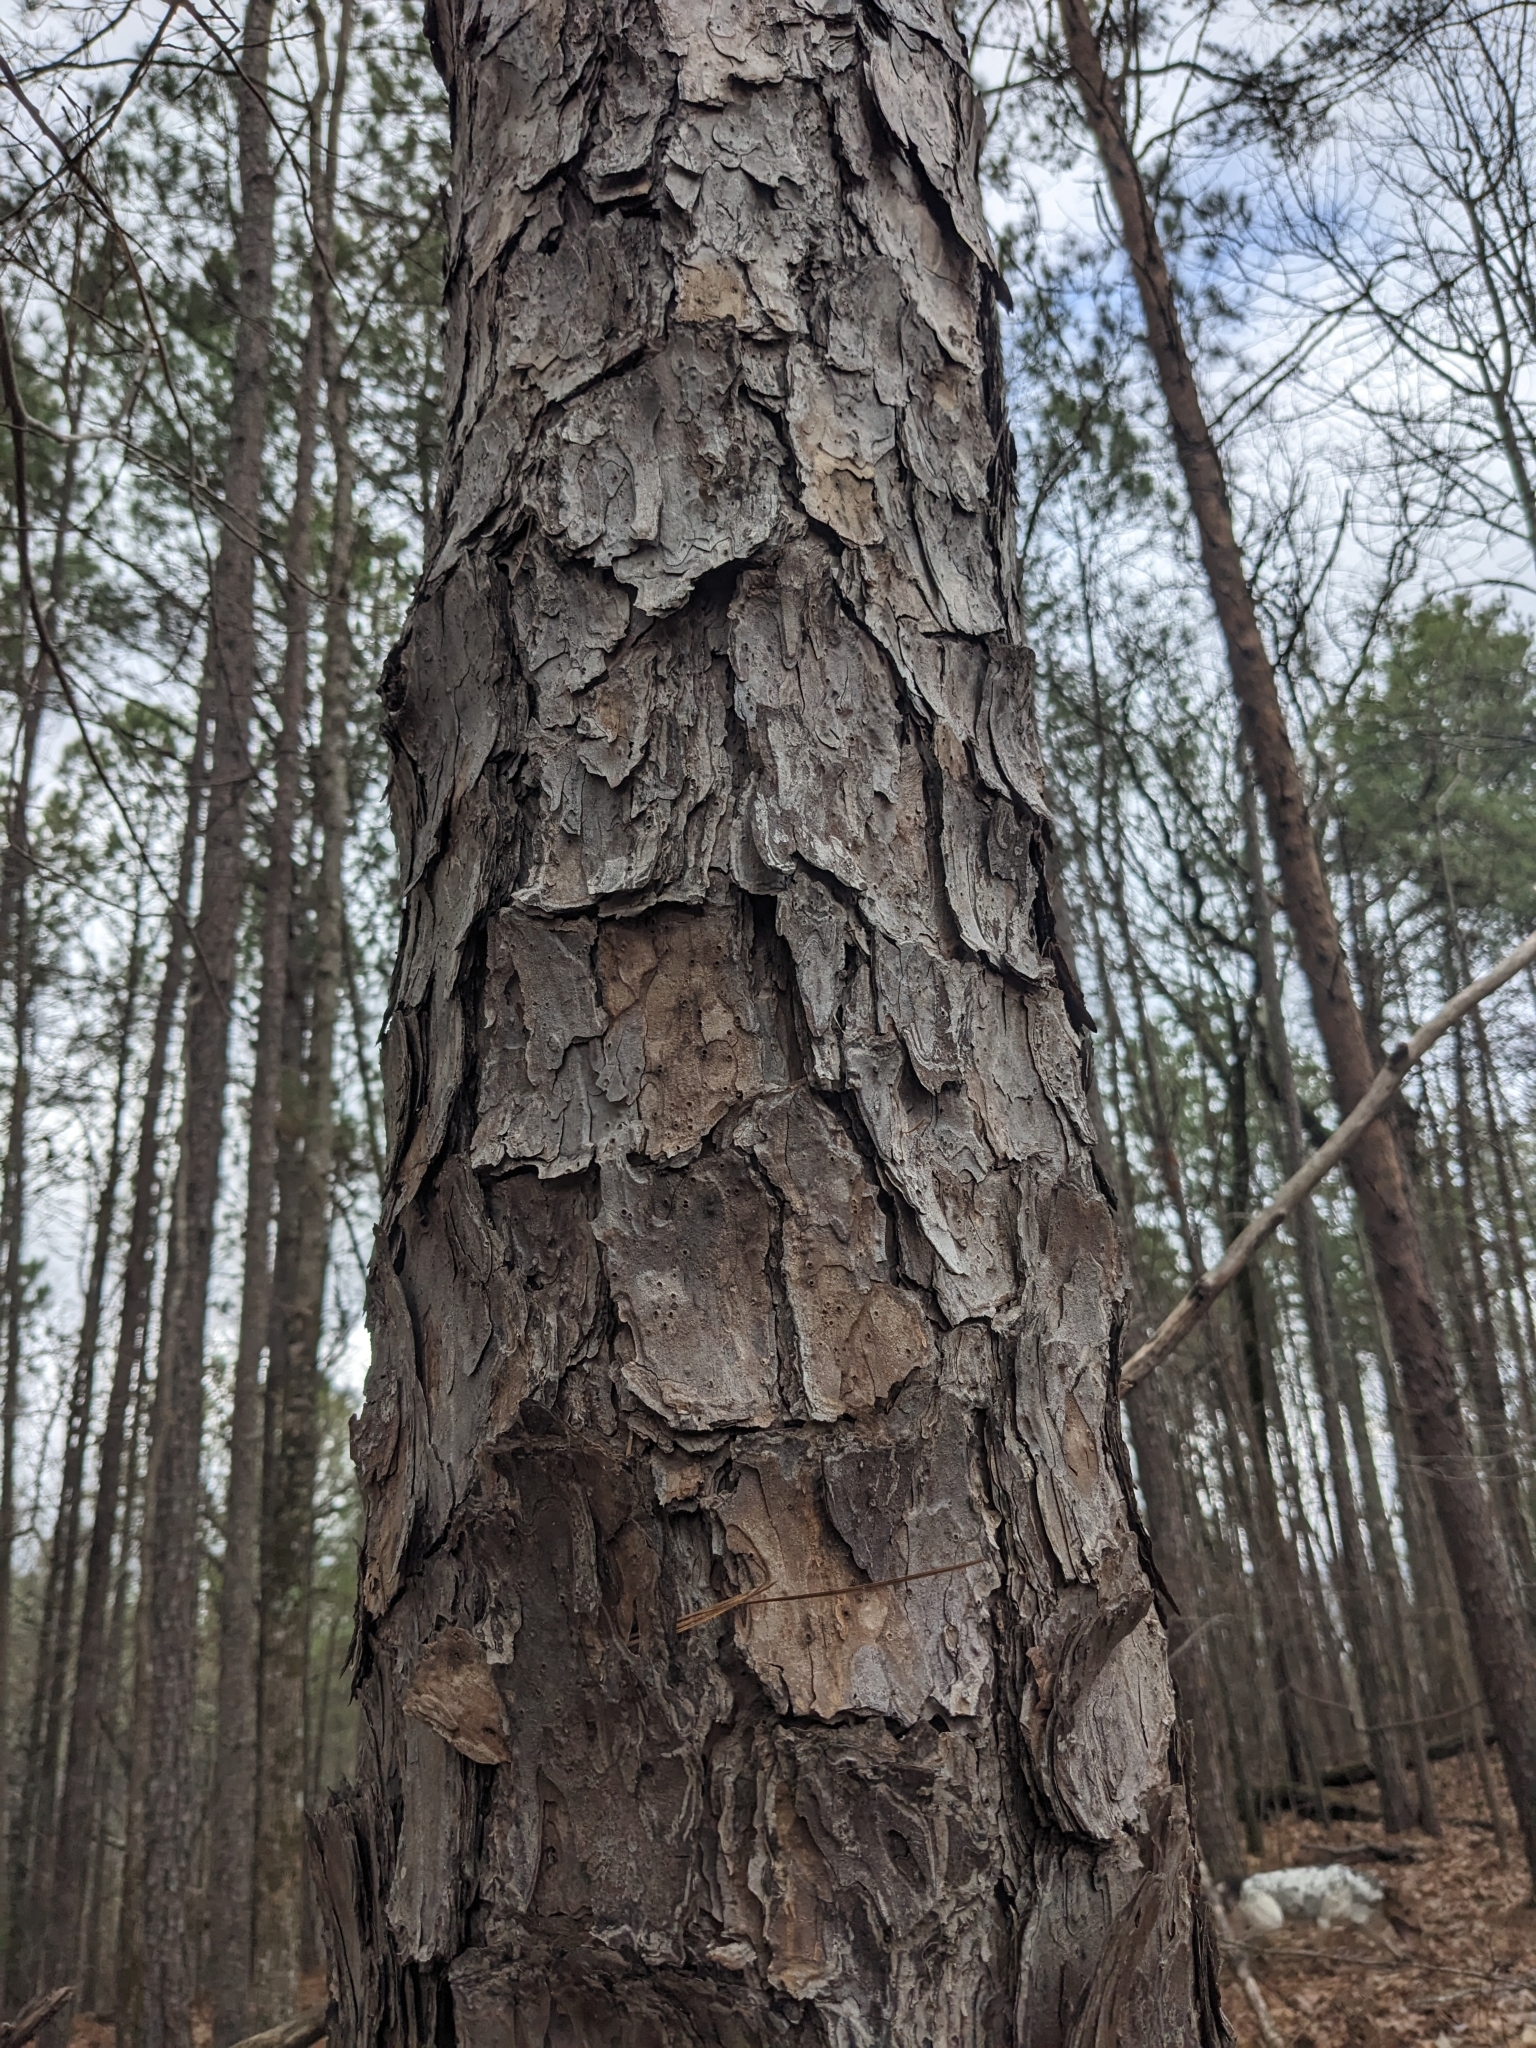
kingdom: Plantae
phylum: Tracheophyta
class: Pinopsida
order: Pinales
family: Pinaceae
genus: Pinus
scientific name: Pinus echinata
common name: Shortleaf pine
